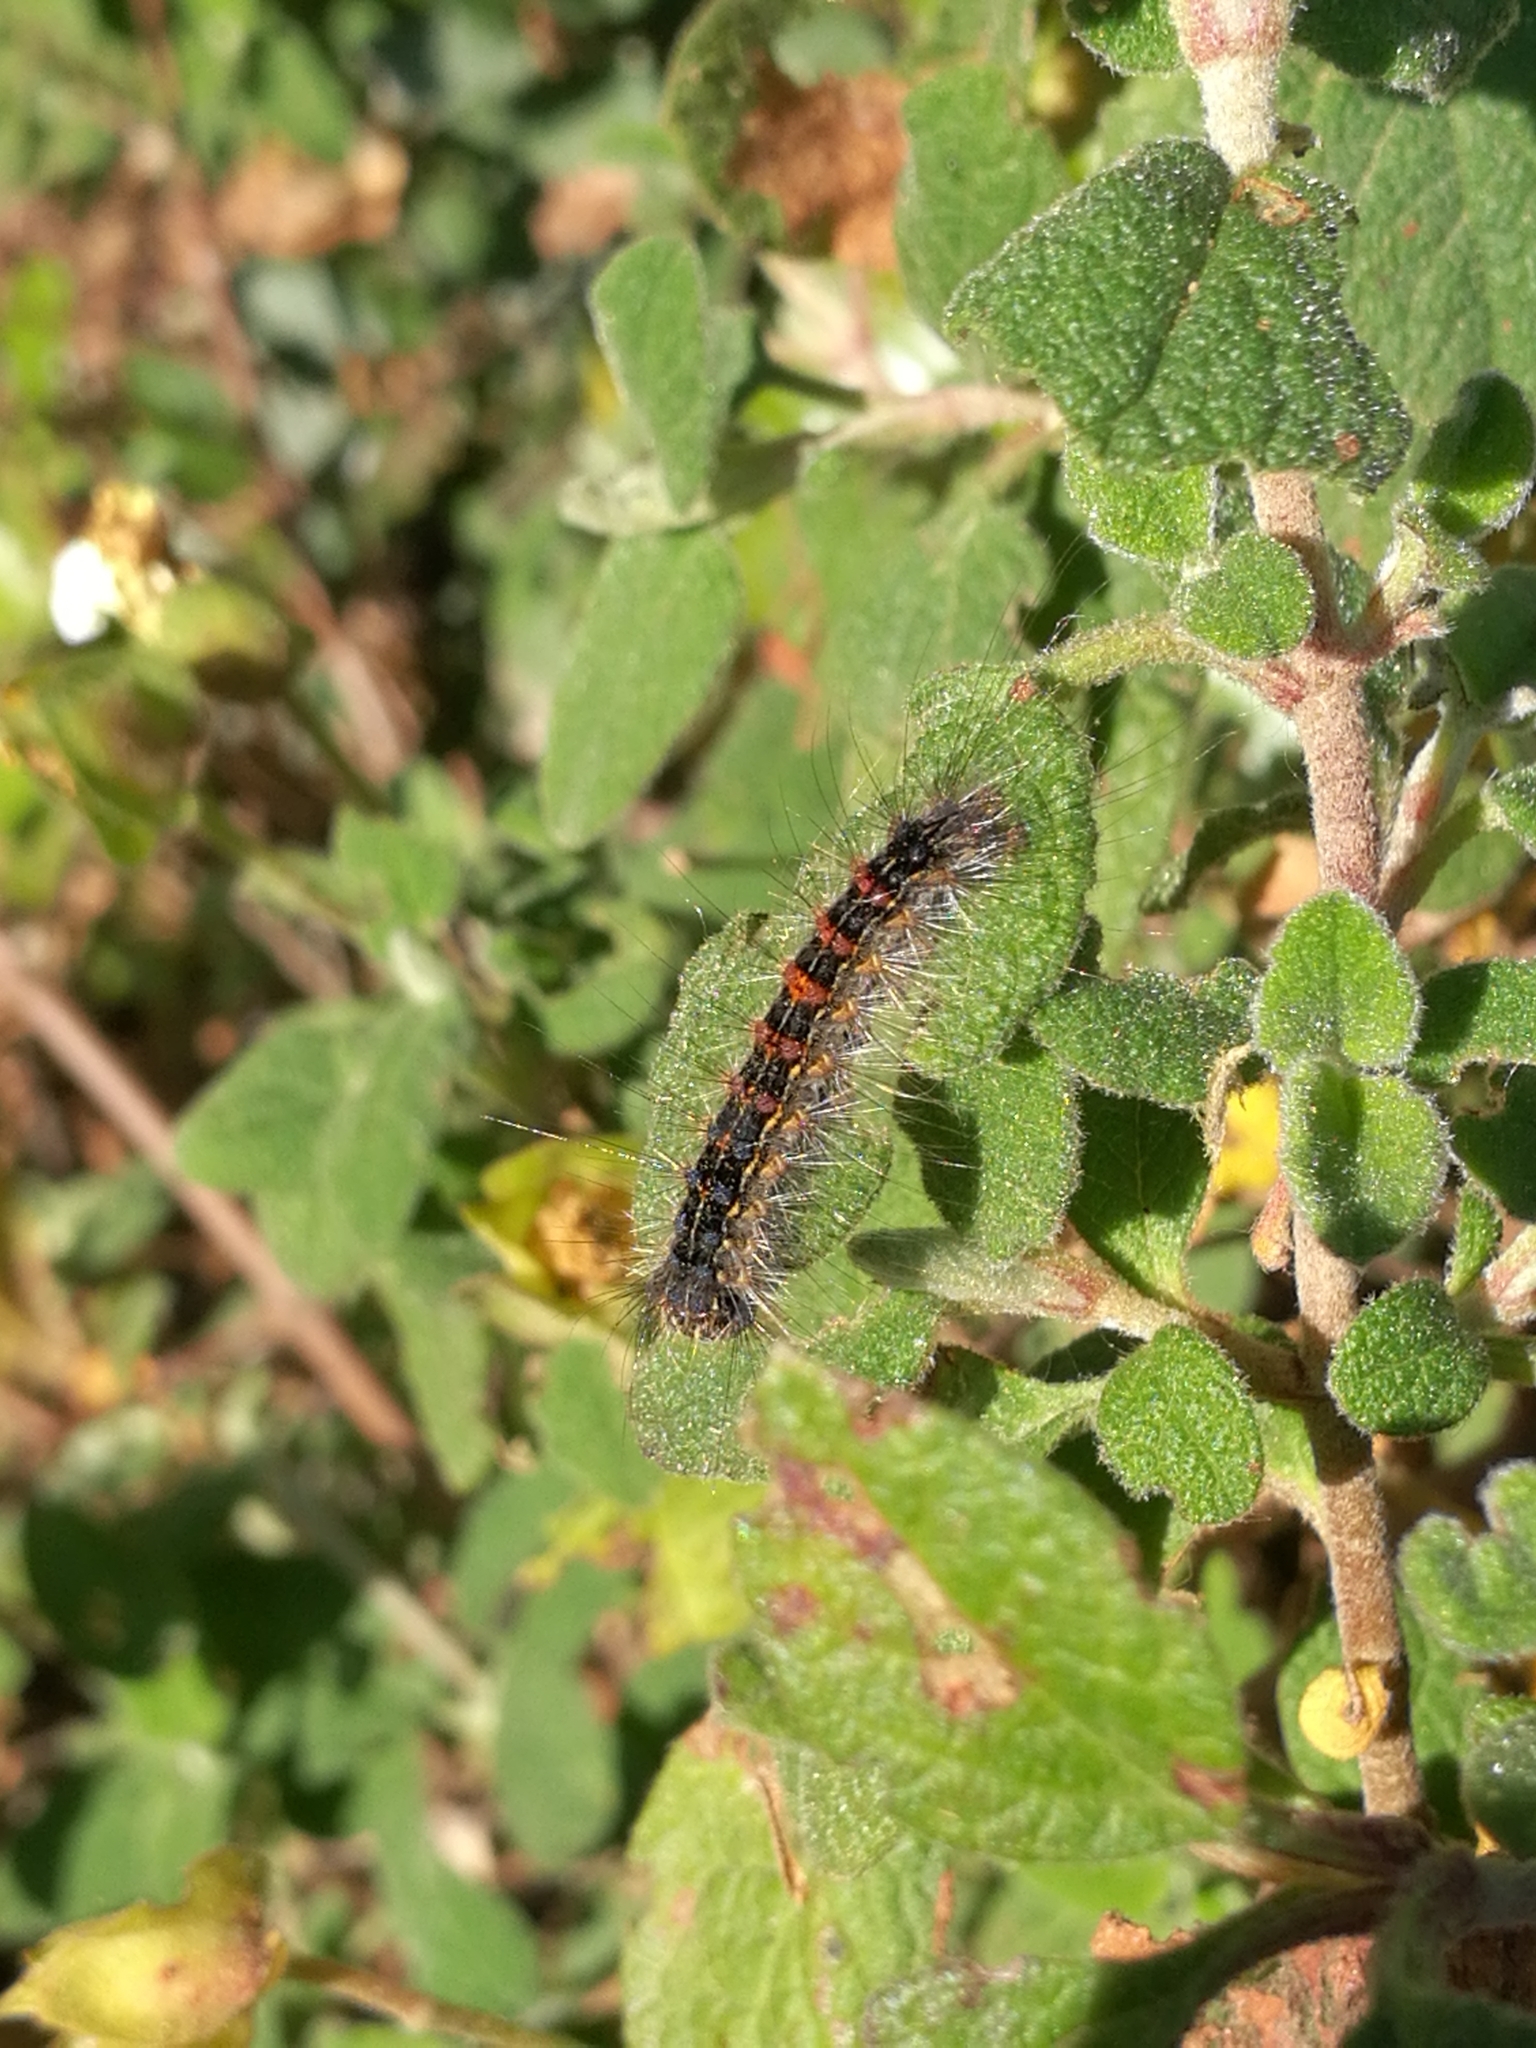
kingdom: Animalia
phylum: Arthropoda
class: Insecta
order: Lepidoptera
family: Erebidae
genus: Lymantria
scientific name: Lymantria dispar
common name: Gypsy moth
